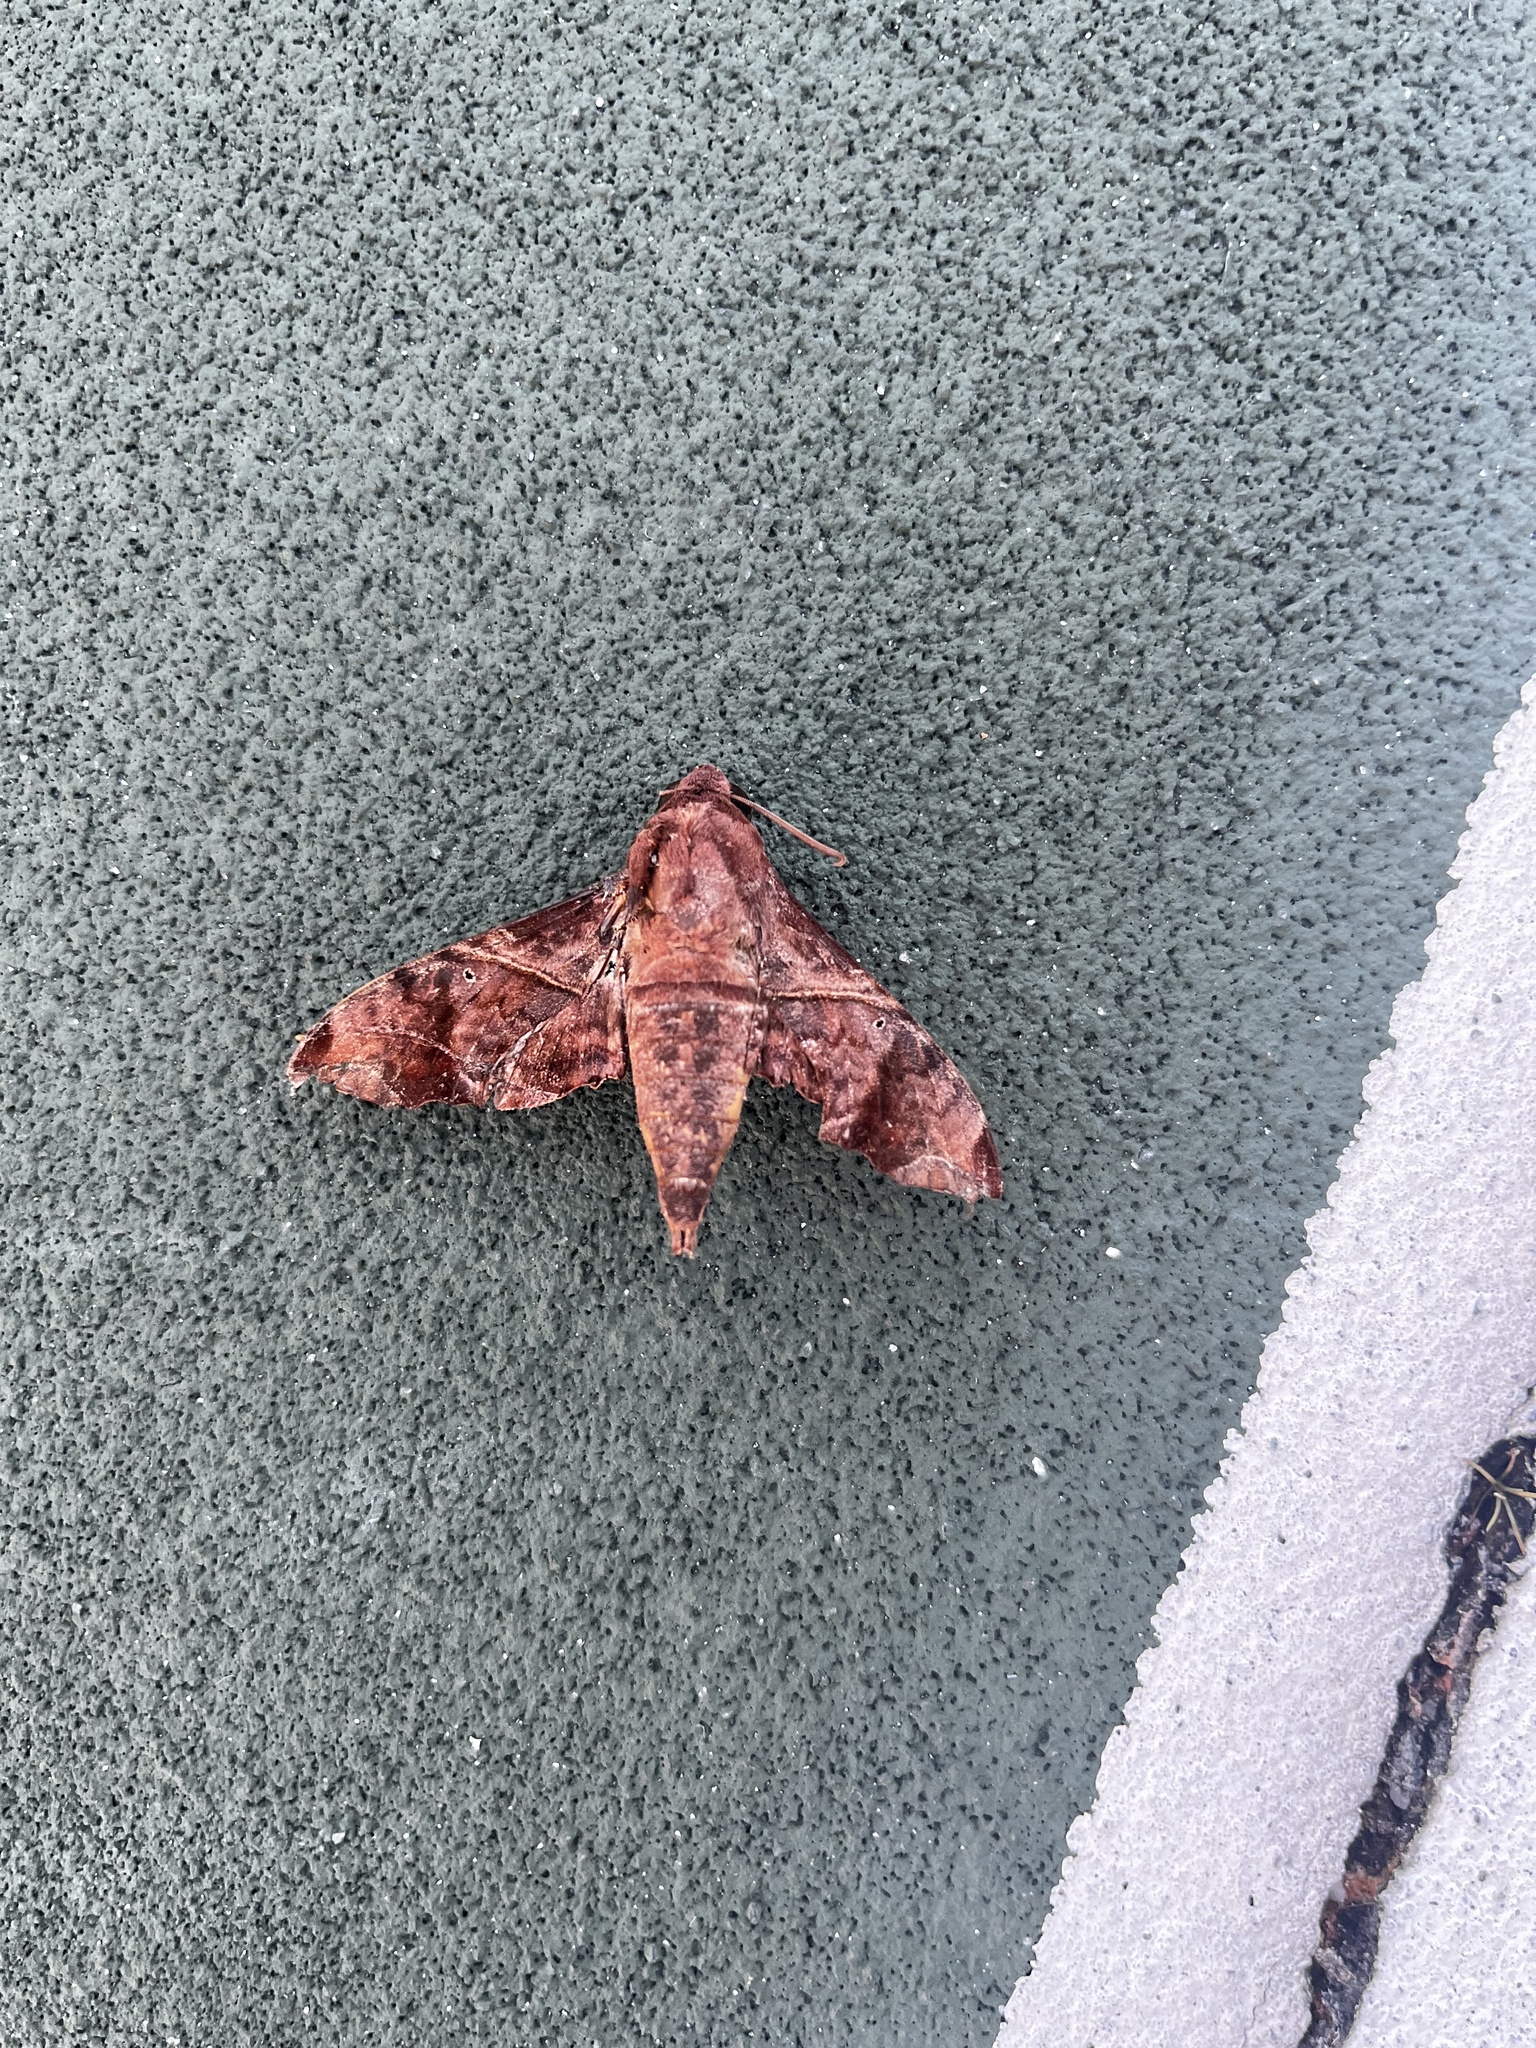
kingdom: Animalia
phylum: Arthropoda
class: Insecta
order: Lepidoptera
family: Sphingidae
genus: Enyo
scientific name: Enyo lugubris
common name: Mournful sphinx
